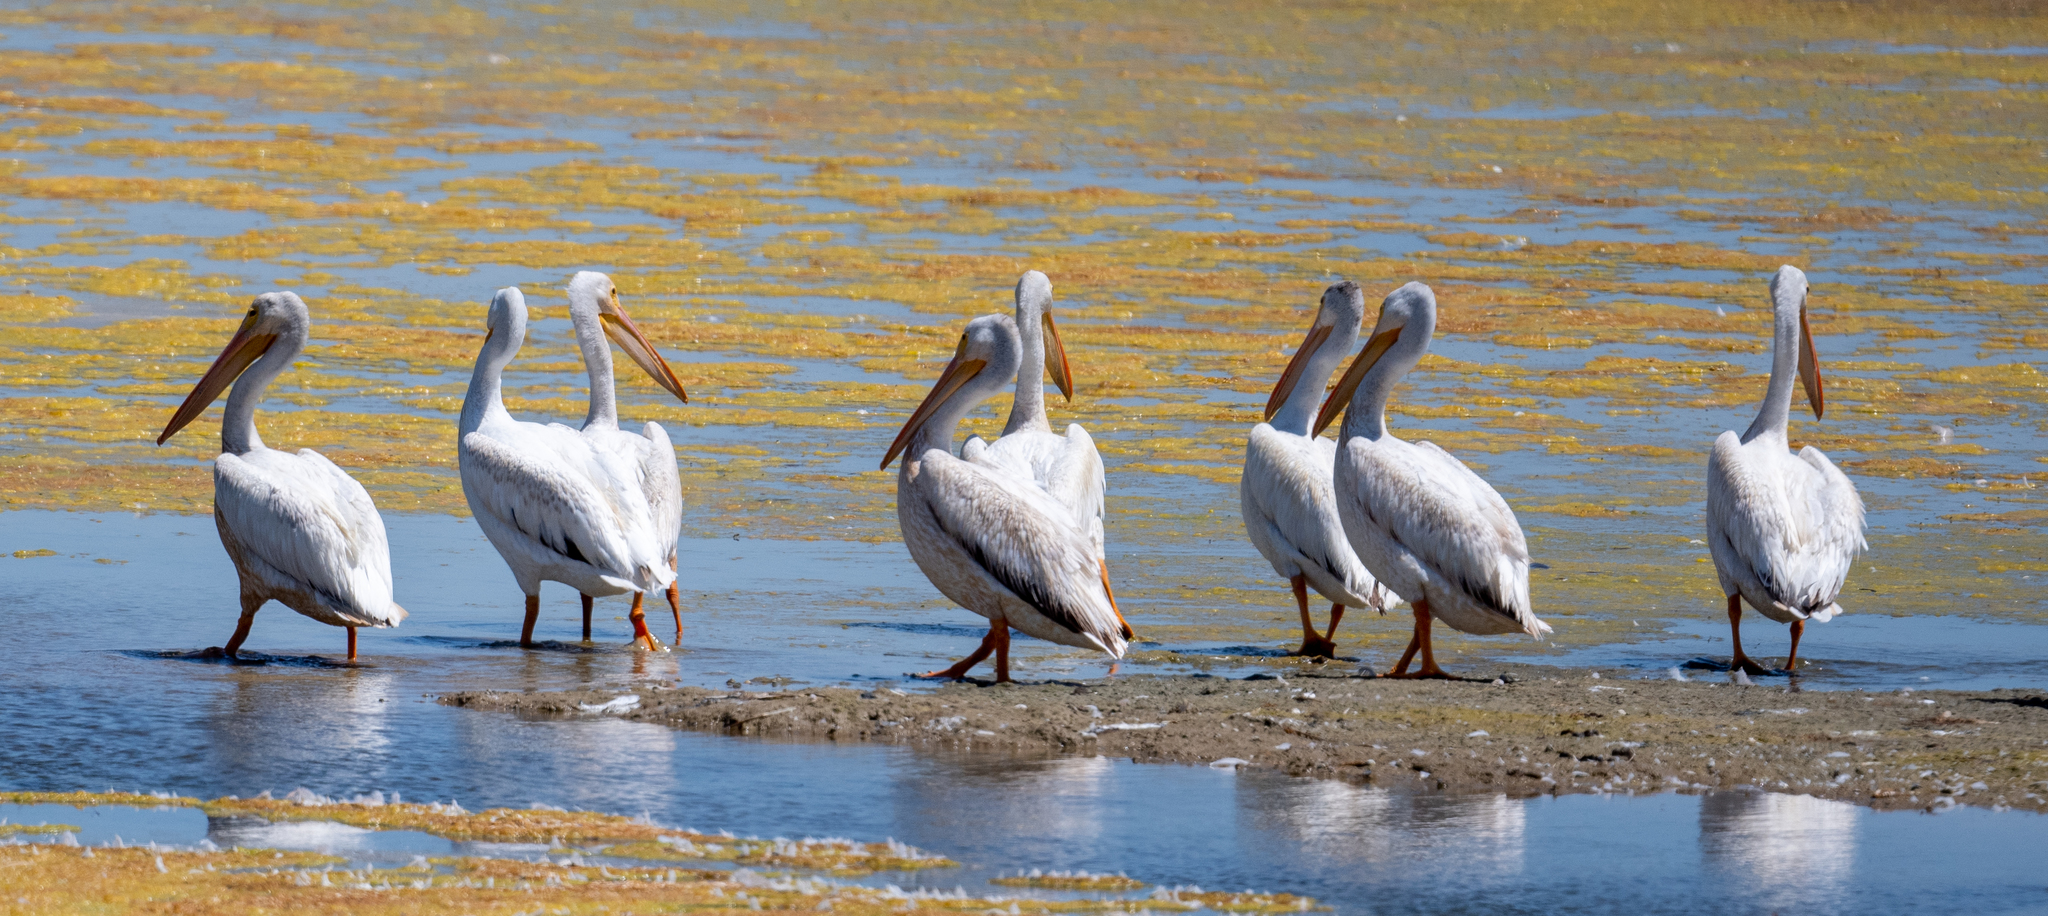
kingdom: Animalia
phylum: Chordata
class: Aves
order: Pelecaniformes
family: Pelecanidae
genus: Pelecanus
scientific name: Pelecanus erythrorhynchos
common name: American white pelican
